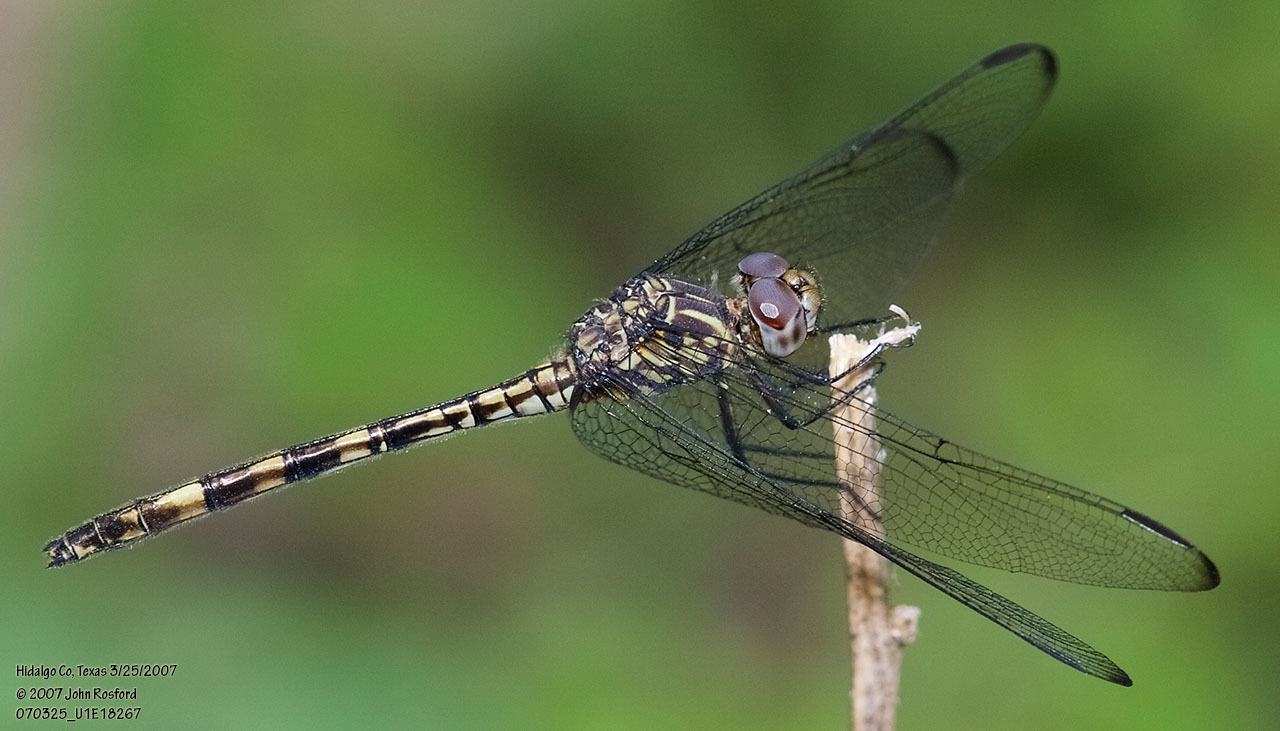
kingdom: Animalia
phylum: Arthropoda
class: Insecta
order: Odonata
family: Libellulidae
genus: Dythemis
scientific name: Dythemis nigrescens
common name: Black setwing
